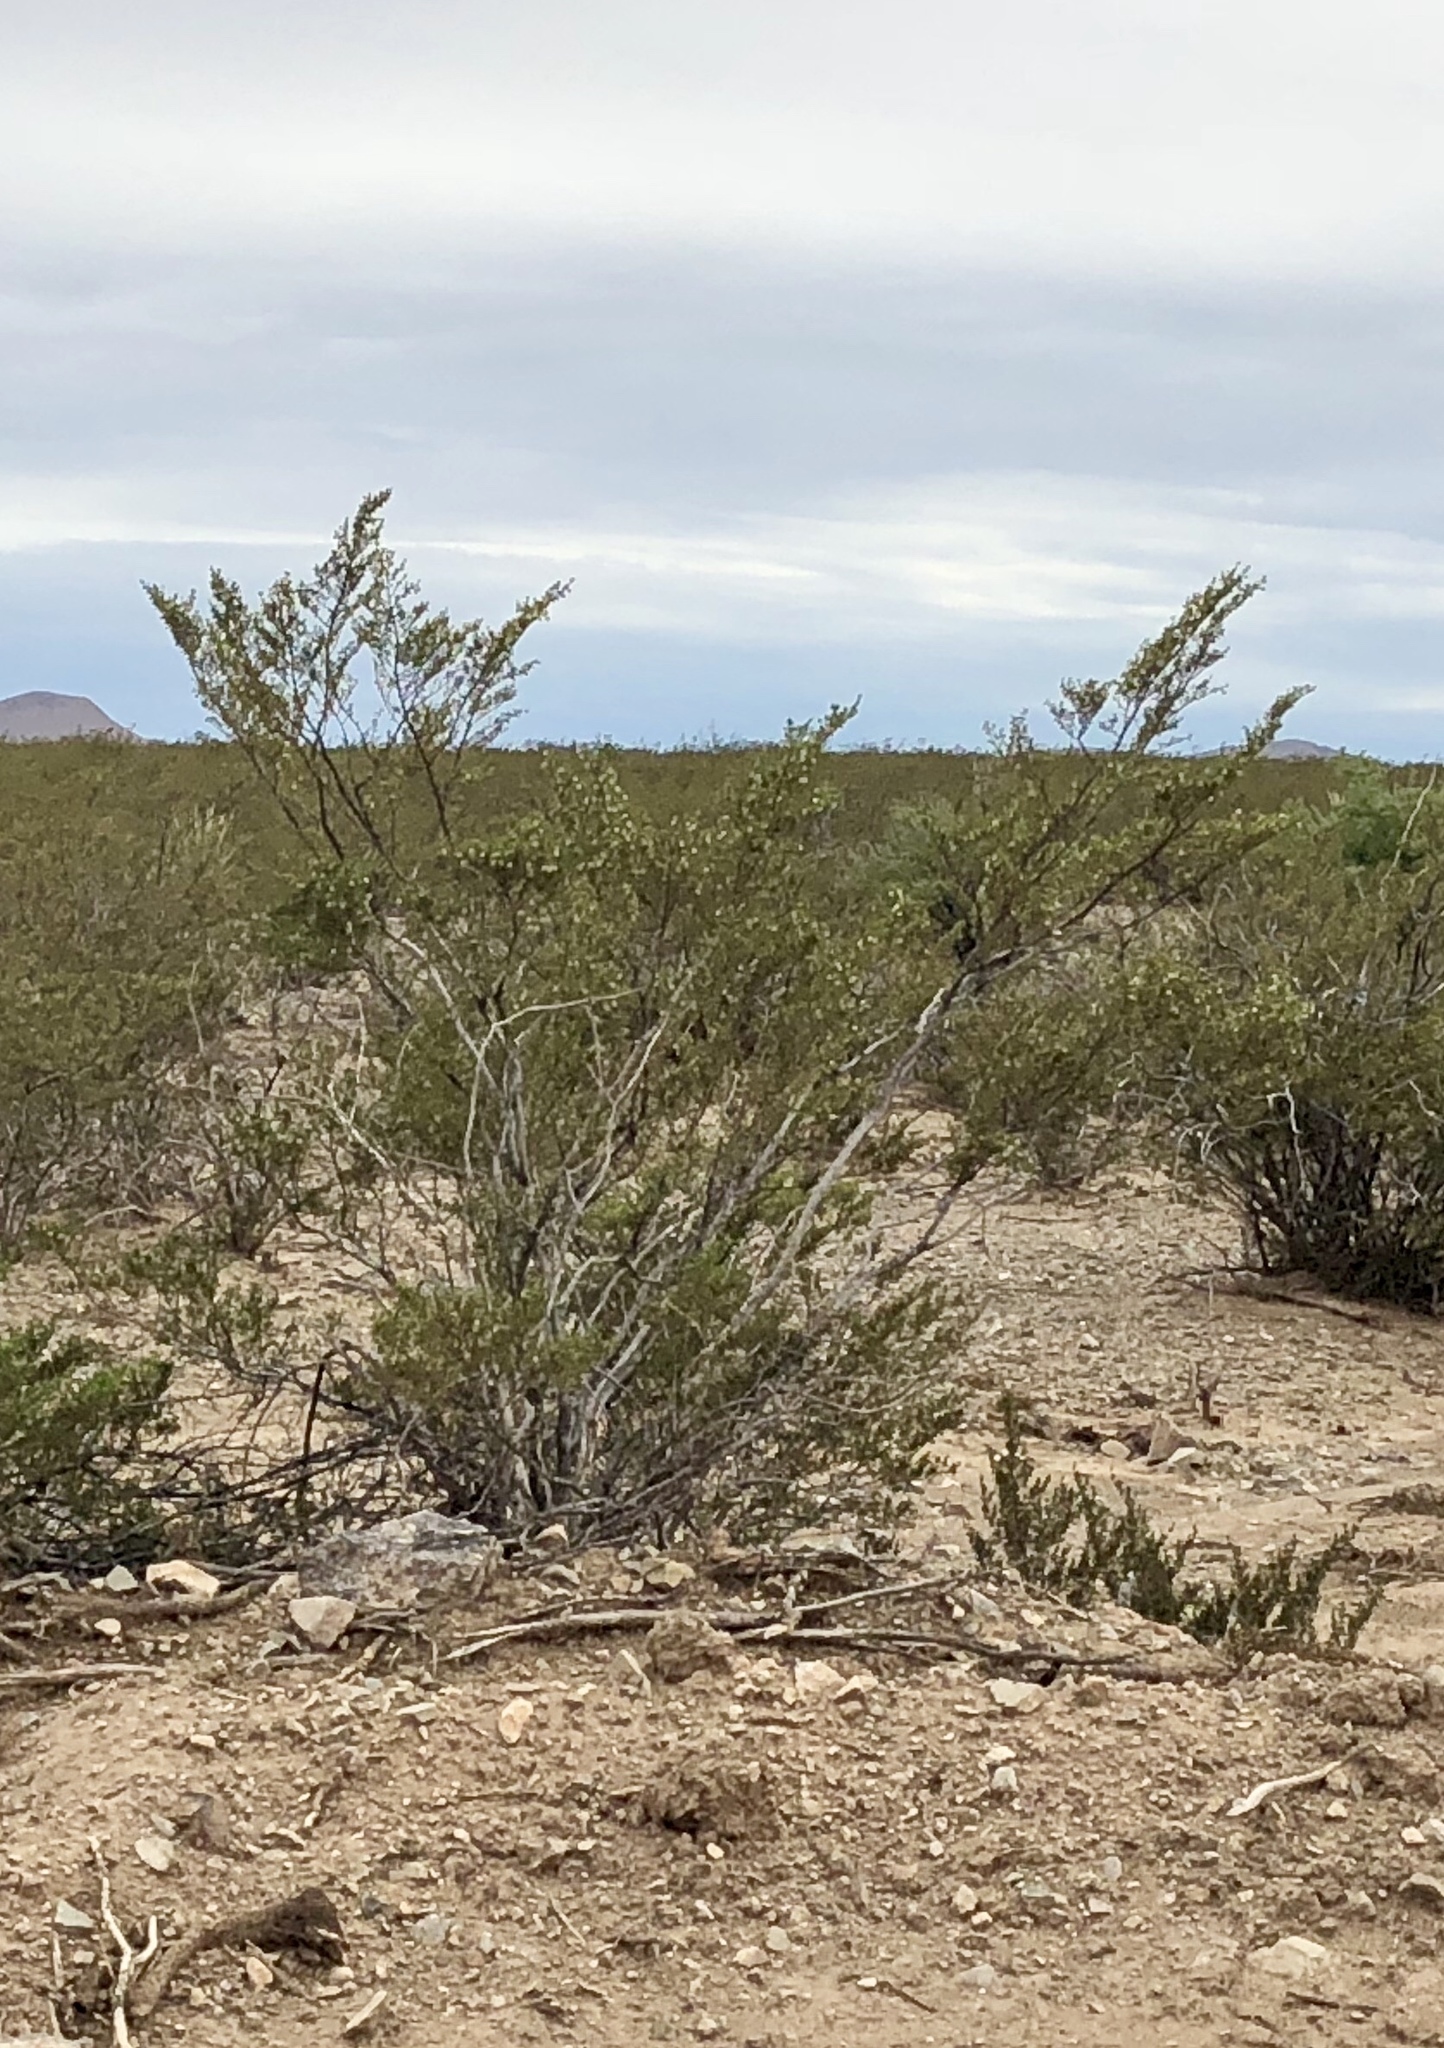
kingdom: Plantae
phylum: Tracheophyta
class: Magnoliopsida
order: Zygophyllales
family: Zygophyllaceae
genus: Larrea
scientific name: Larrea tridentata
